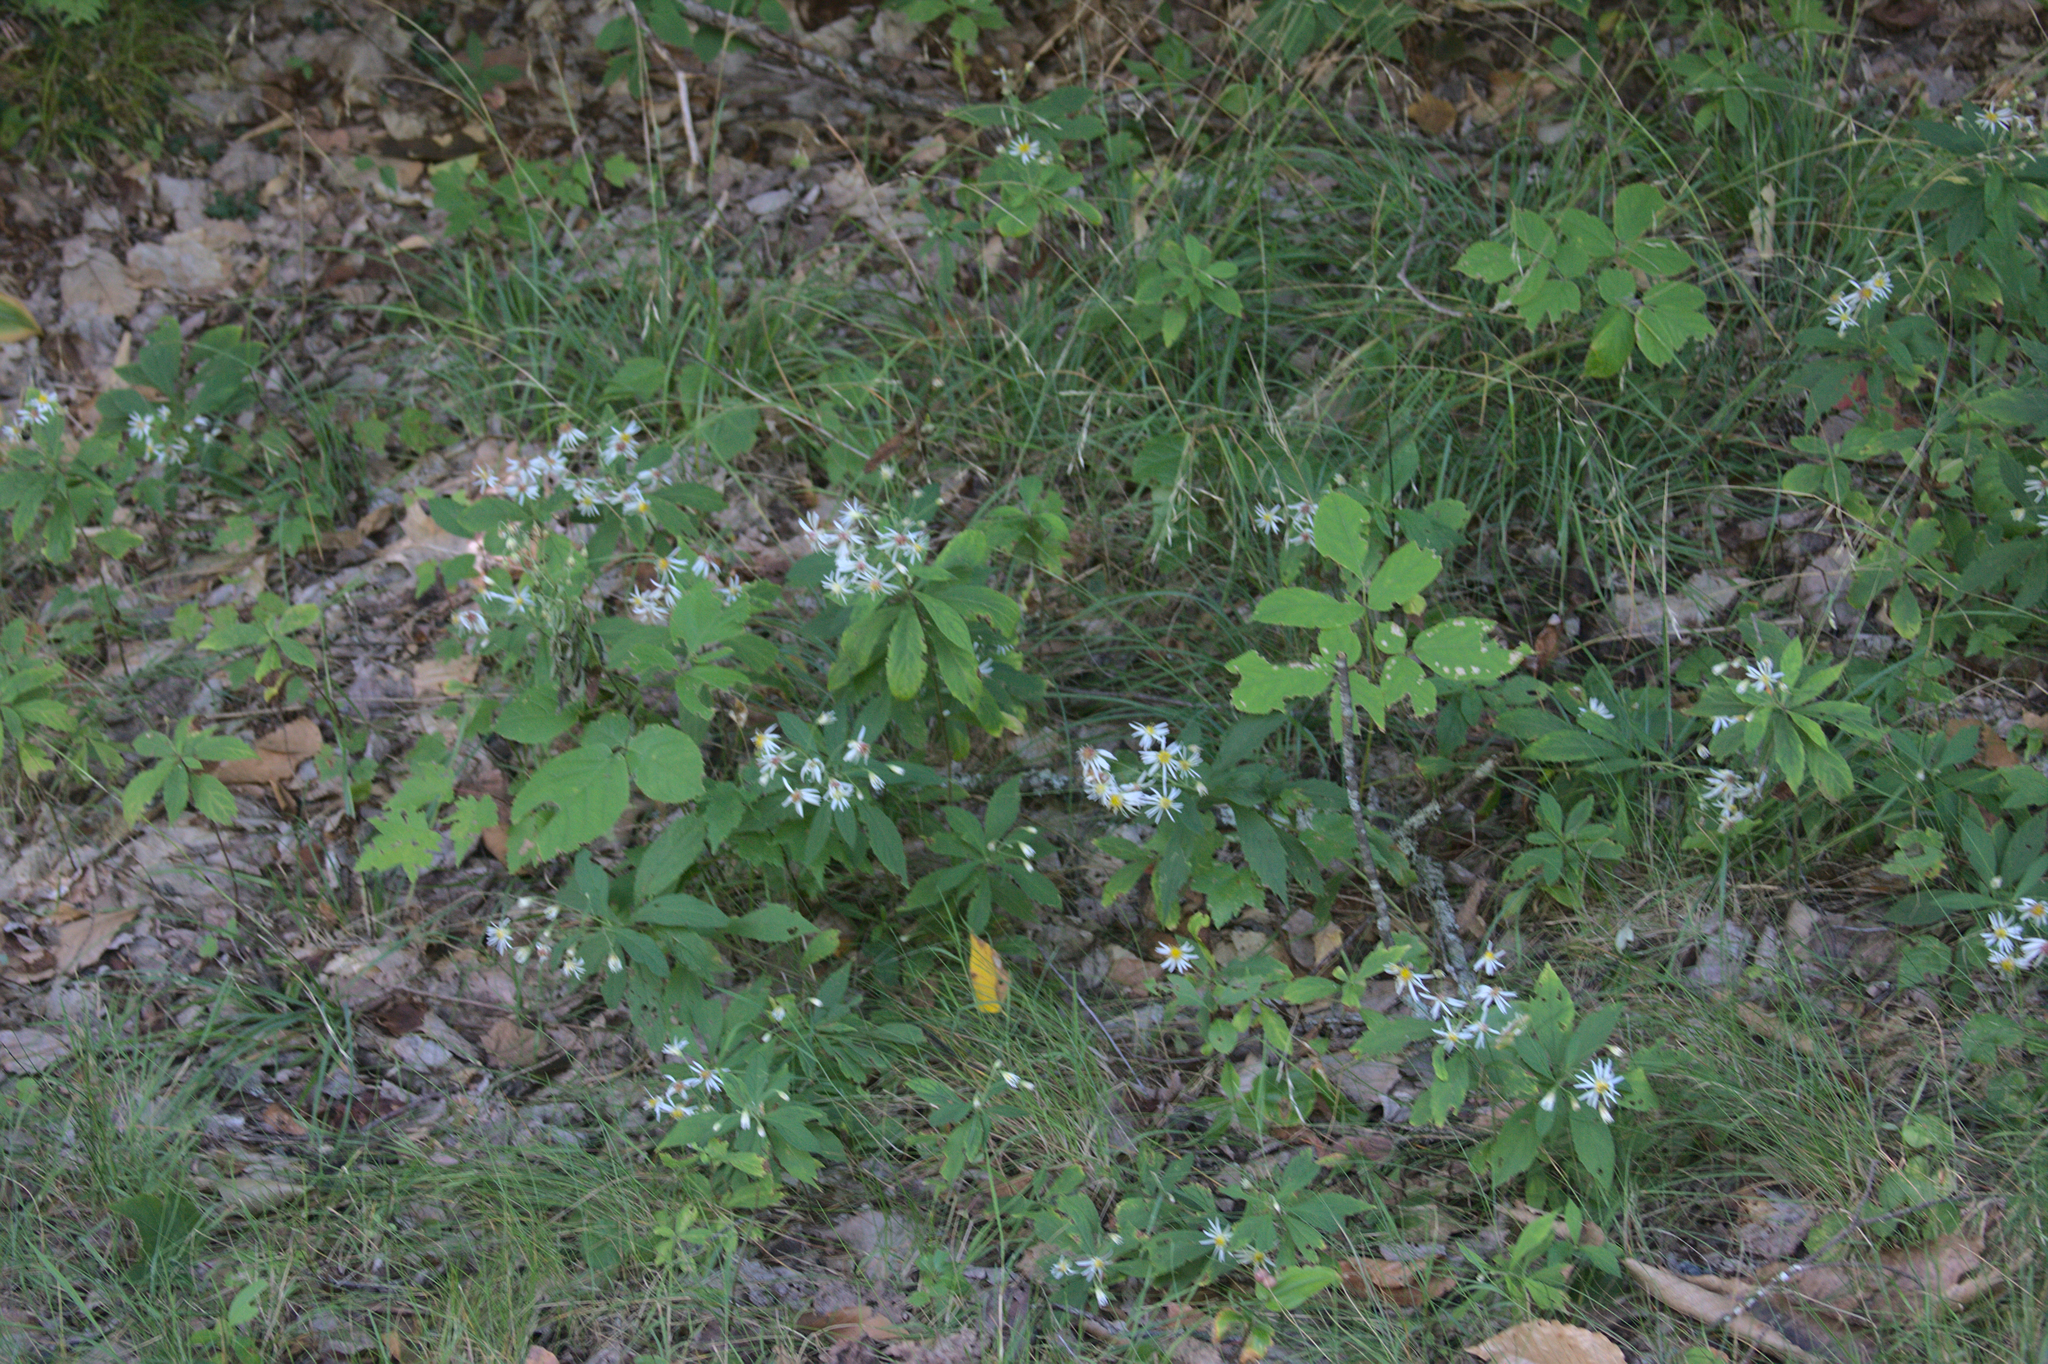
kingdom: Plantae
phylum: Tracheophyta
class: Magnoliopsida
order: Asterales
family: Asteraceae
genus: Oclemena
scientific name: Oclemena acuminata
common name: Mountain aster
